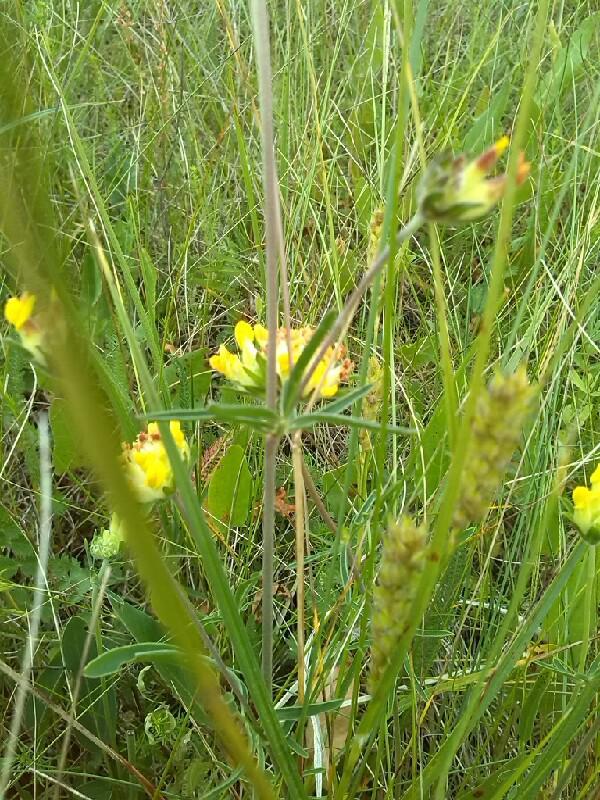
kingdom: Plantae
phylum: Tracheophyta
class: Magnoliopsida
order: Fabales
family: Fabaceae
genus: Anthyllis
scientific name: Anthyllis vulneraria
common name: Kidney vetch
